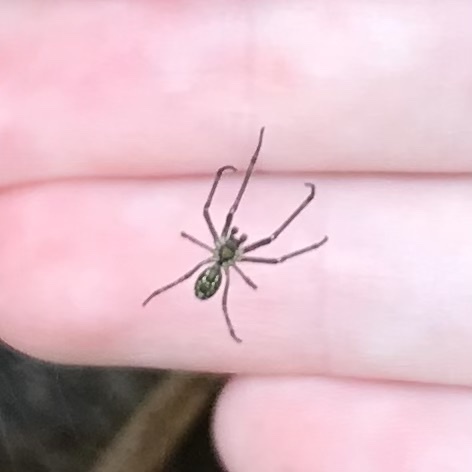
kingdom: Animalia
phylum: Arthropoda
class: Arachnida
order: Araneae
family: Tetragnathidae
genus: Leucauge
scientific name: Leucauge dromedaria
